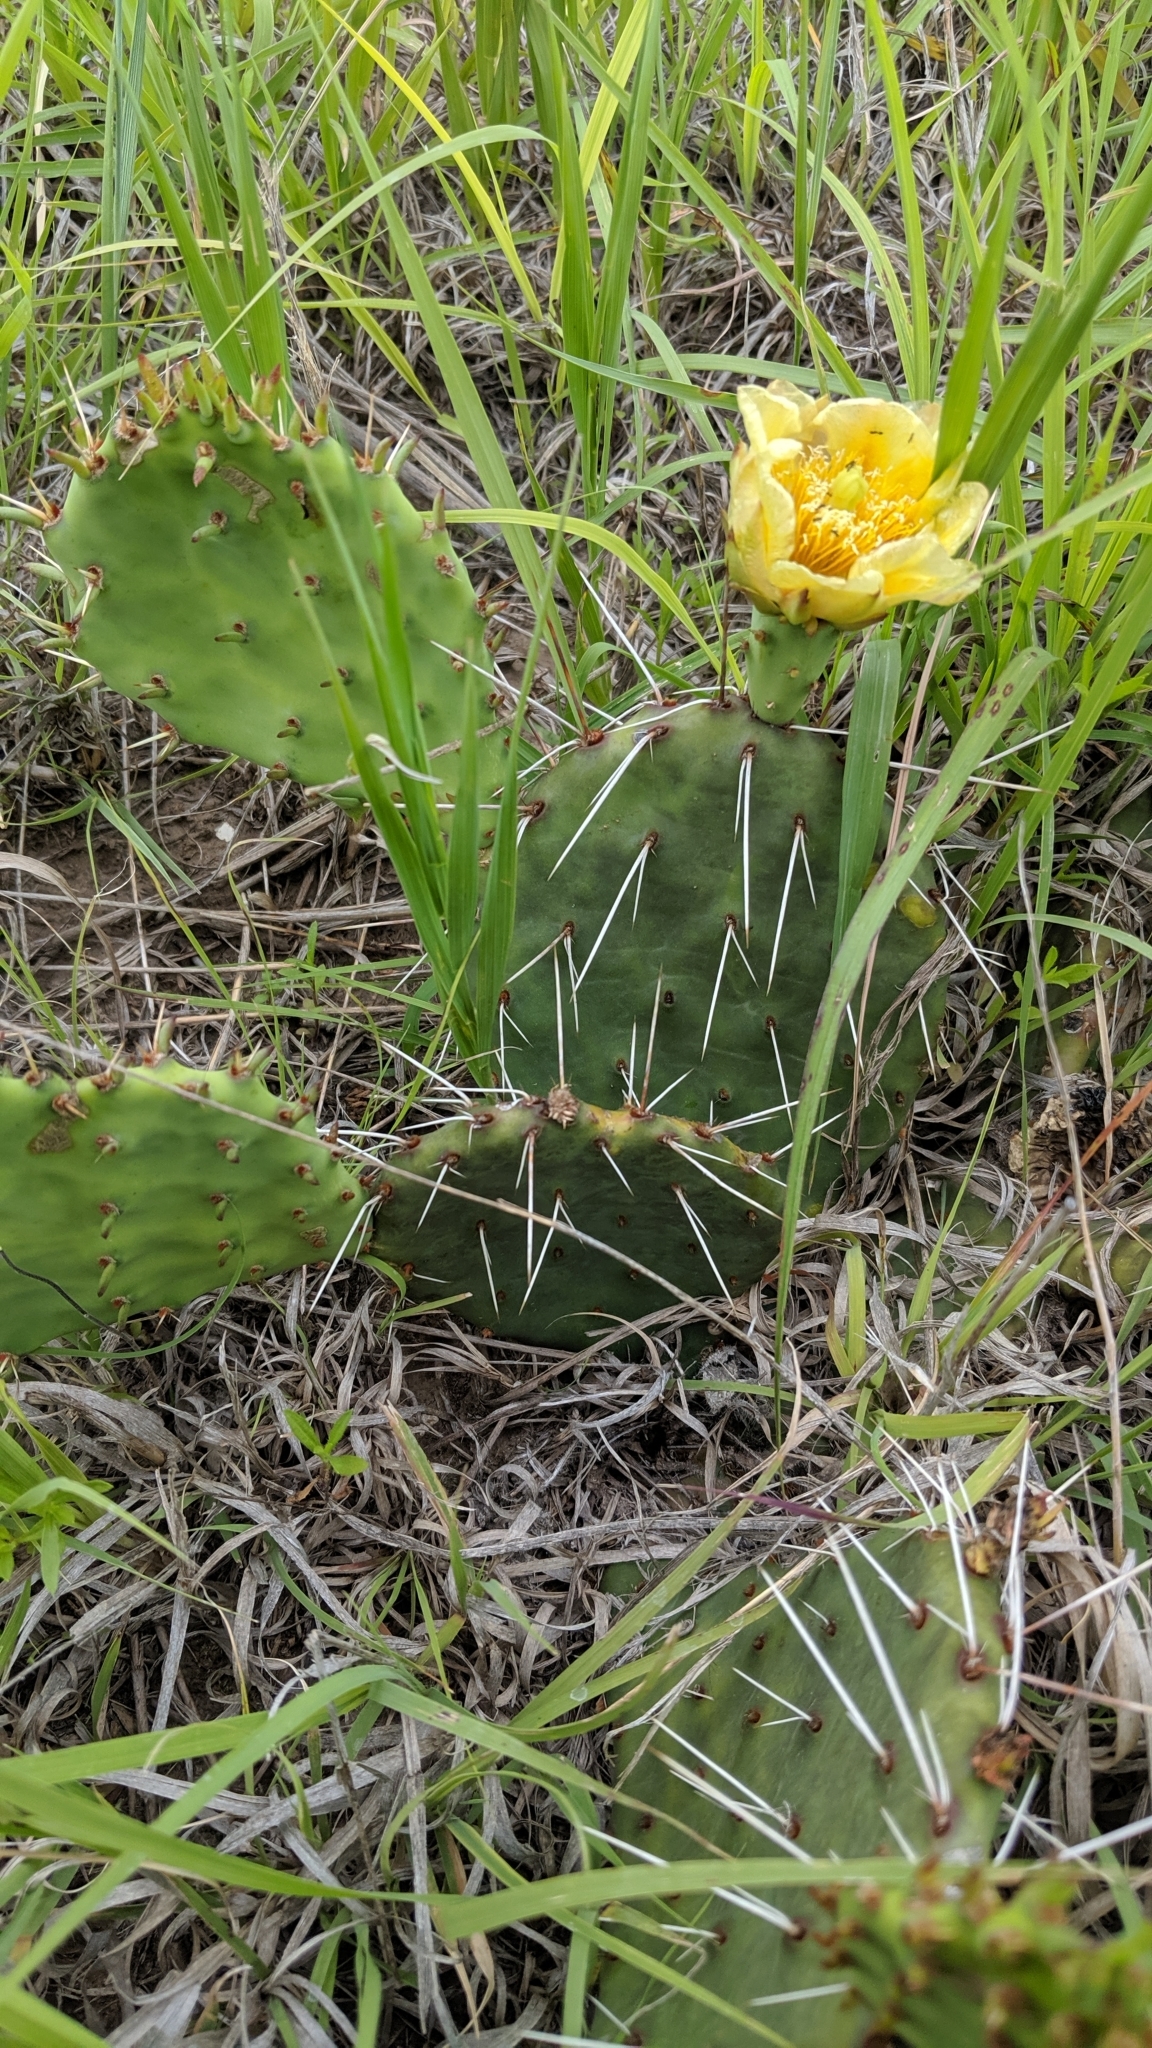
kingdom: Plantae
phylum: Tracheophyta
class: Magnoliopsida
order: Caryophyllales
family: Cactaceae
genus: Opuntia
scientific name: Opuntia cymochila
